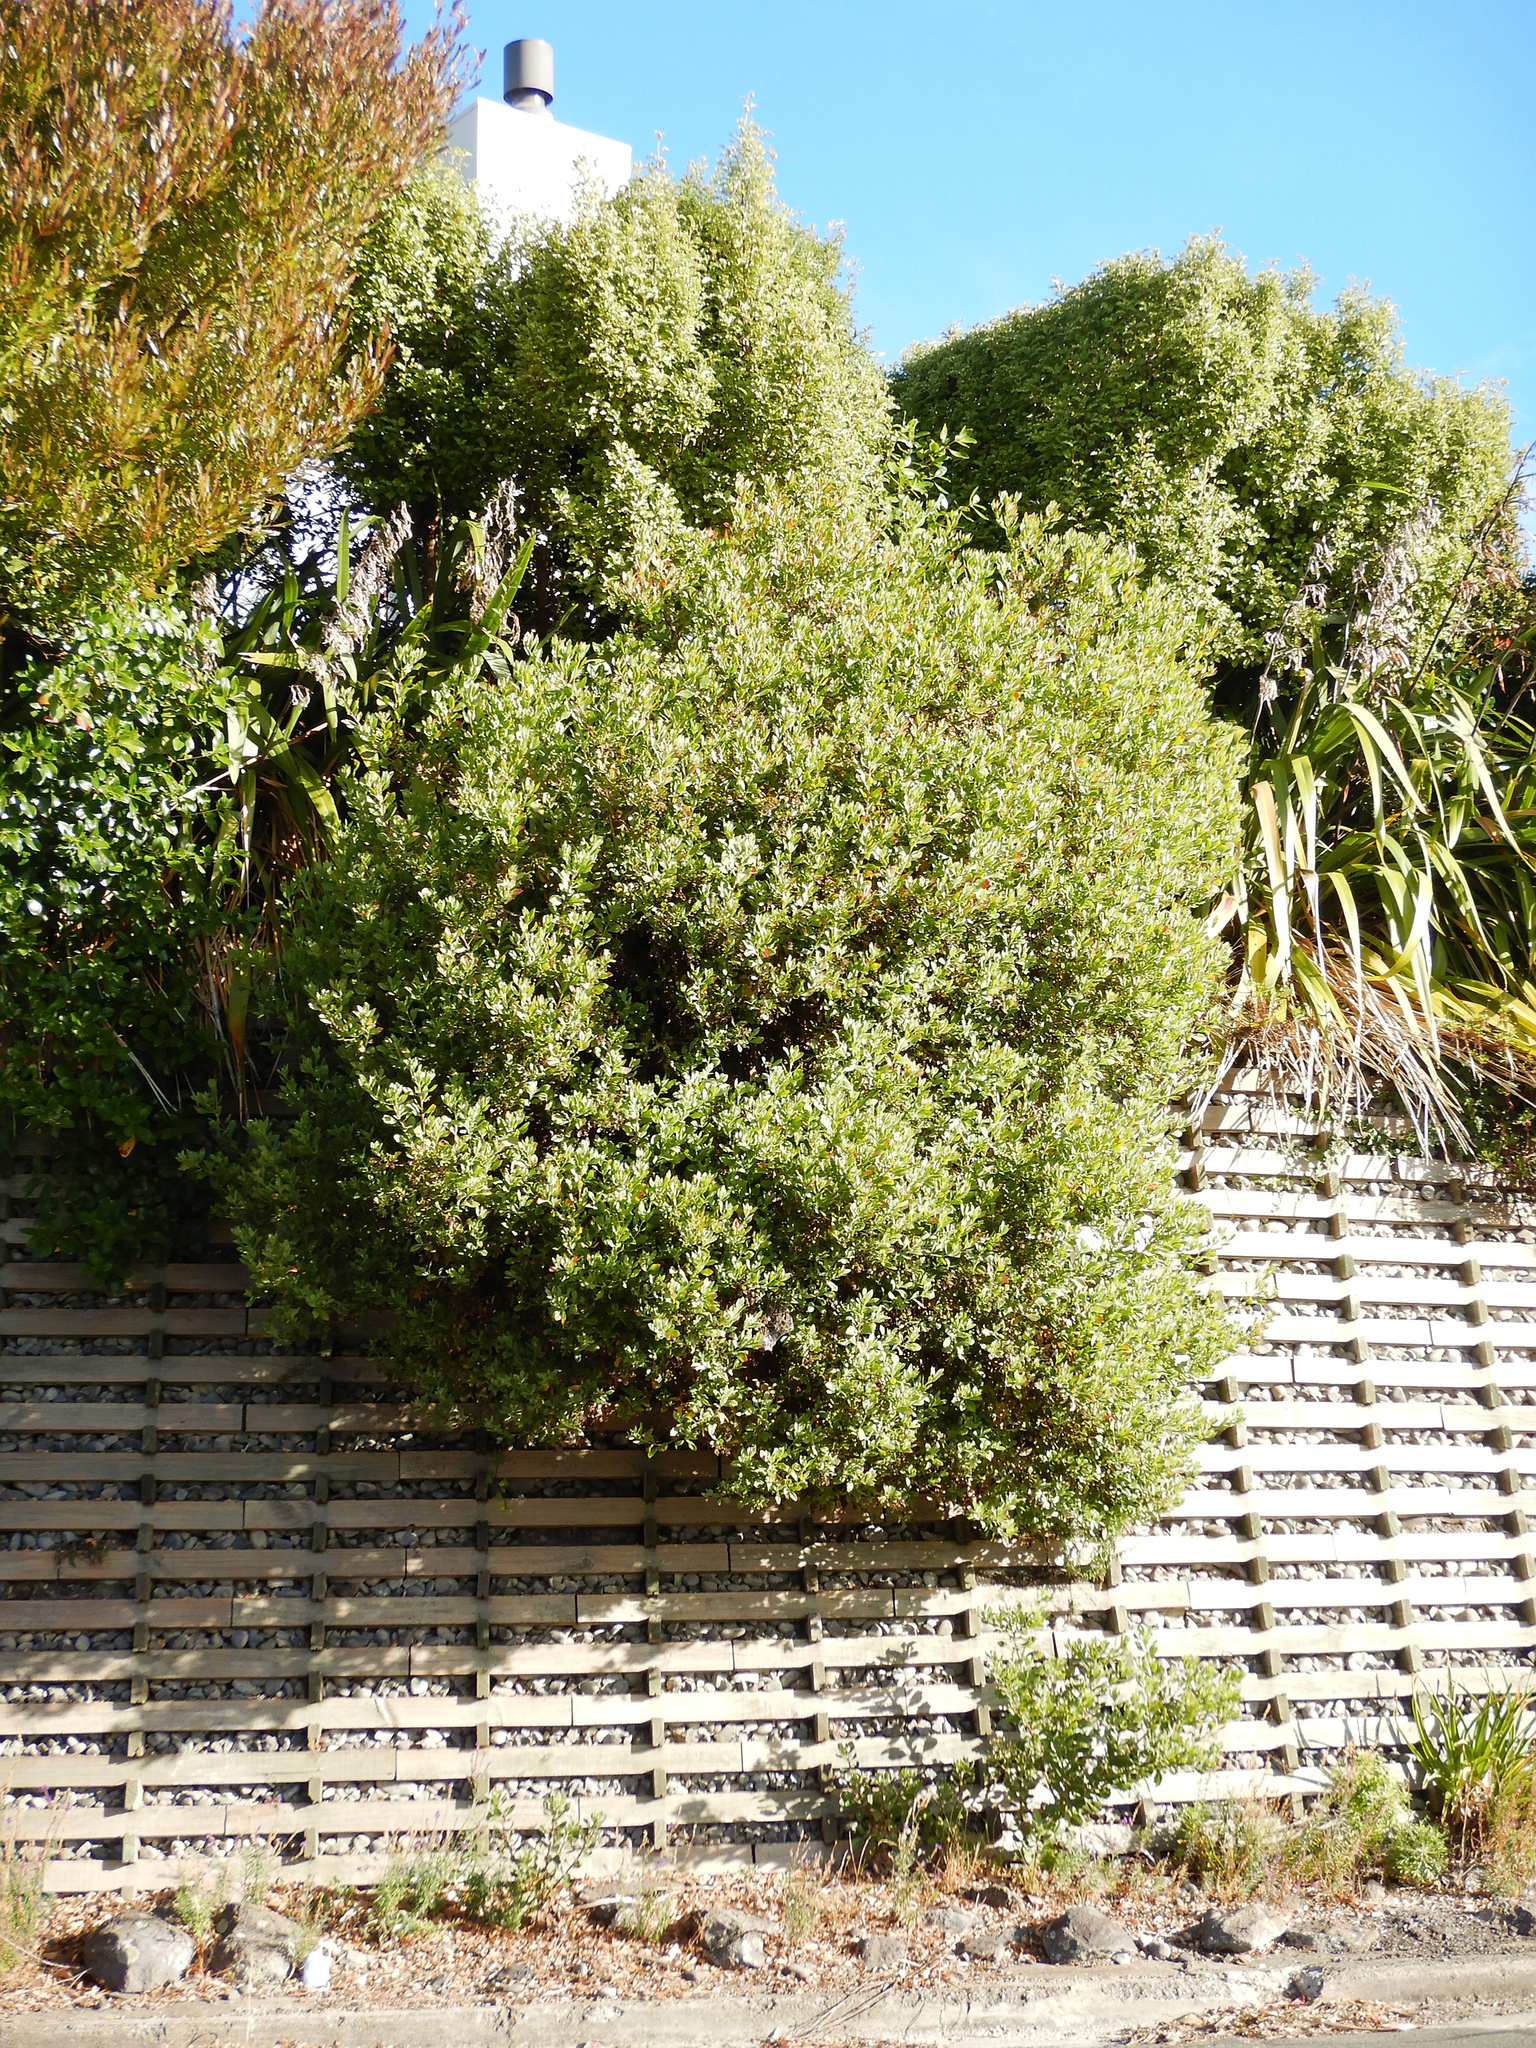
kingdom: Plantae
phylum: Tracheophyta
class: Magnoliopsida
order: Asterales
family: Asteraceae
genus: Osteospermum
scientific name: Osteospermum moniliferum
